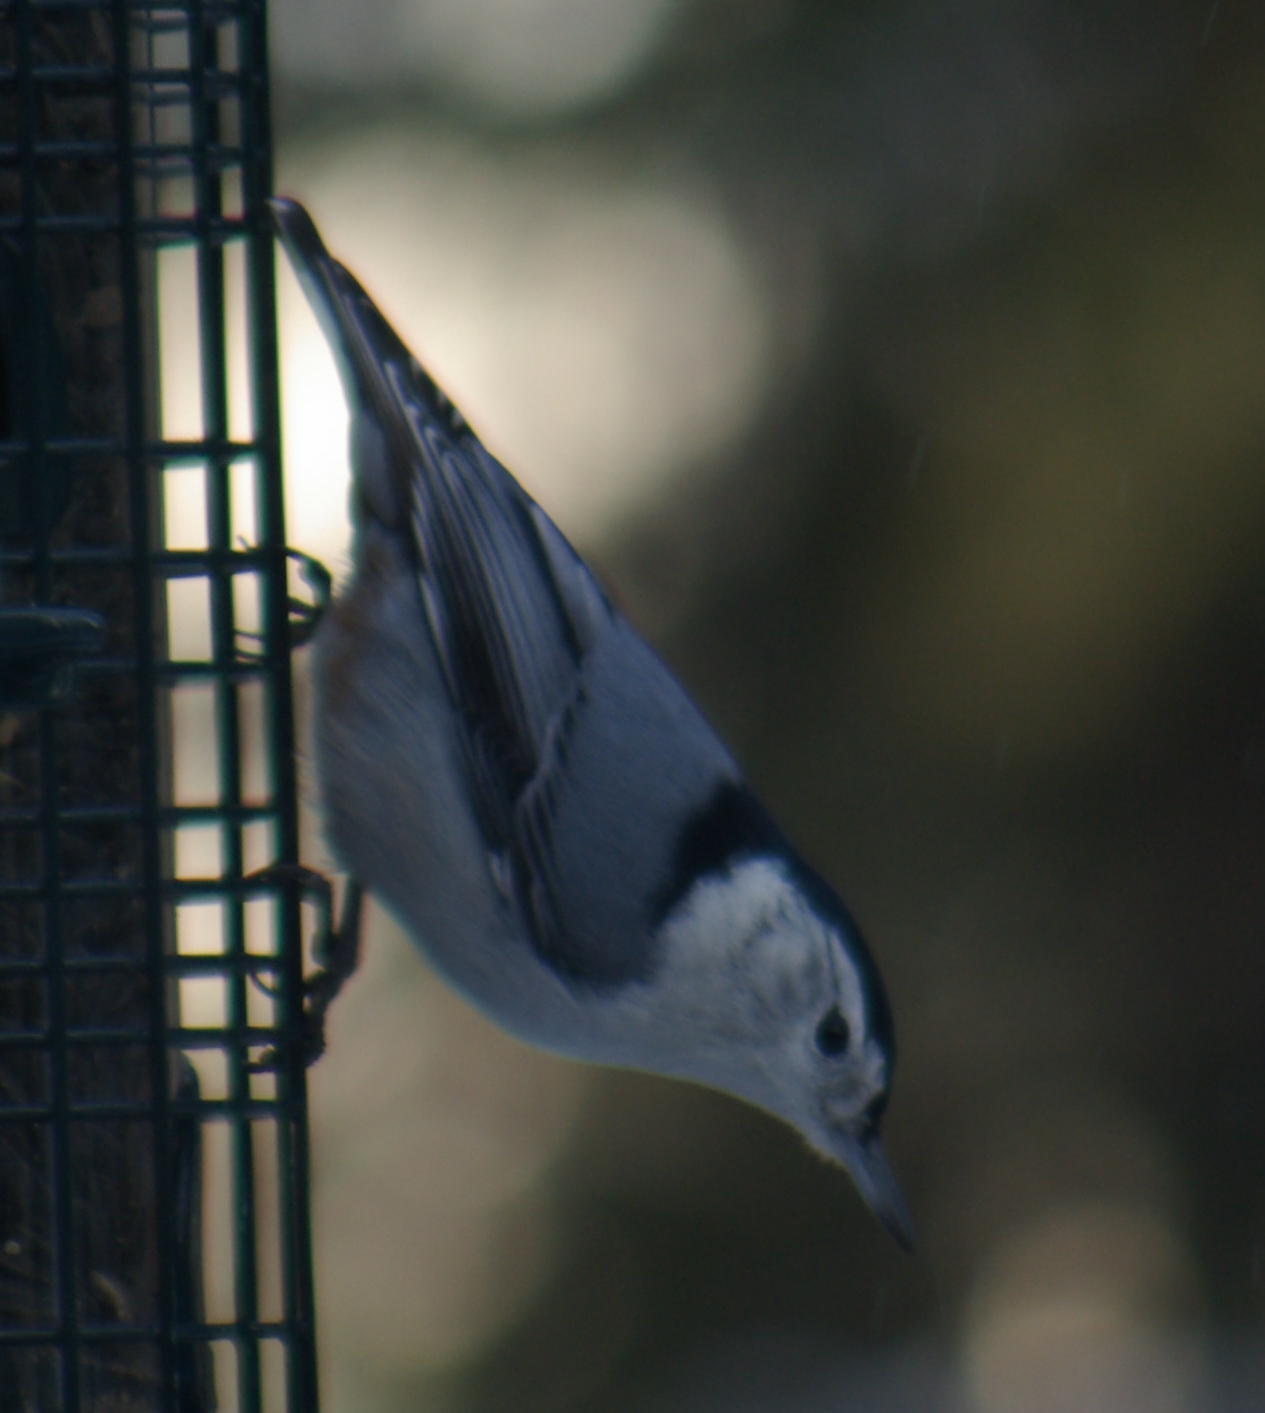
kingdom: Animalia
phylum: Chordata
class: Aves
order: Passeriformes
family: Sittidae
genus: Sitta
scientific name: Sitta carolinensis
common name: White-breasted nuthatch
